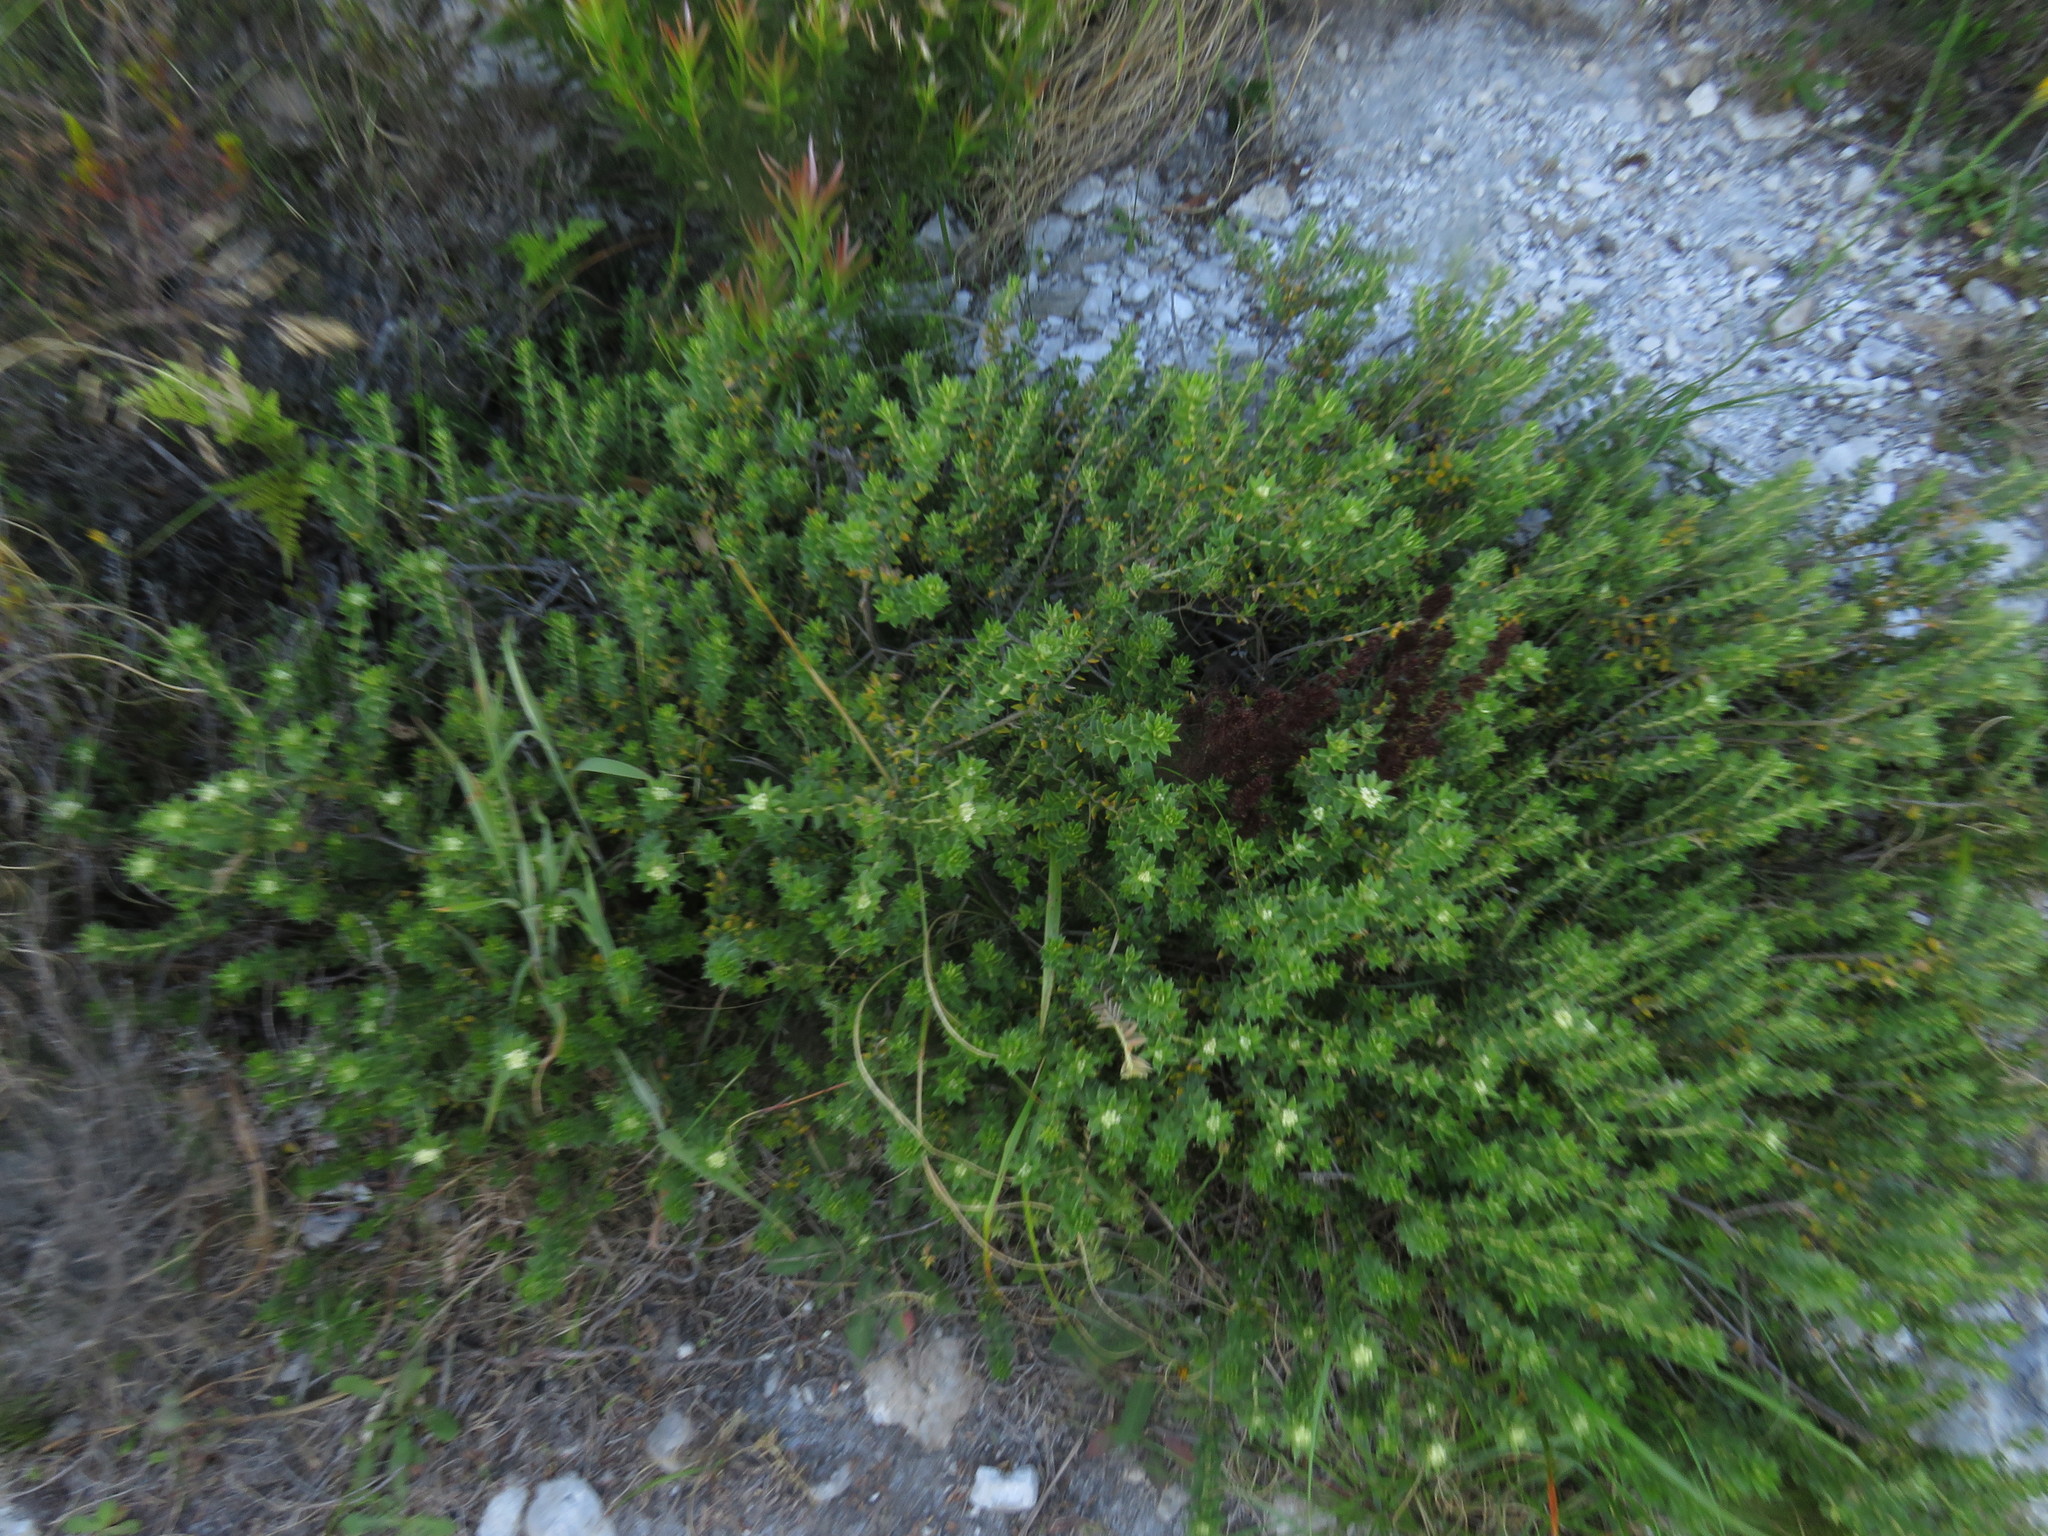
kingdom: Plantae
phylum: Tracheophyta
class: Magnoliopsida
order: Rosales
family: Rhamnaceae
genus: Phylica
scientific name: Phylica dioica
